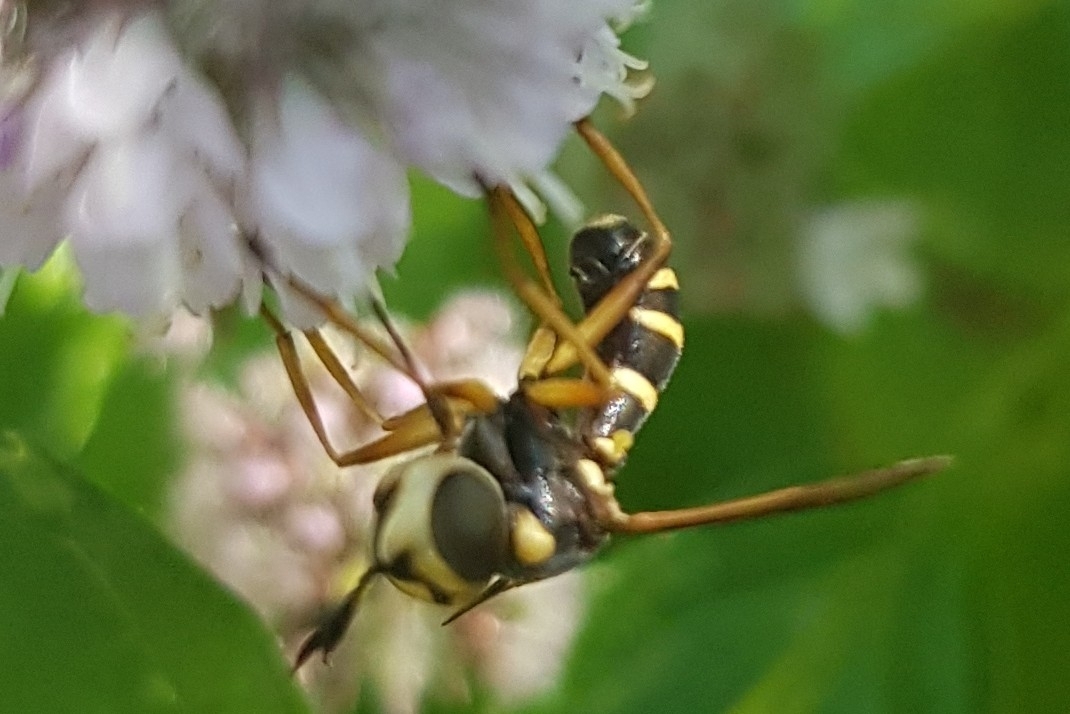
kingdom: Animalia
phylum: Arthropoda
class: Insecta
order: Diptera
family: Conopidae
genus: Conops
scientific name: Conops scutellatus
